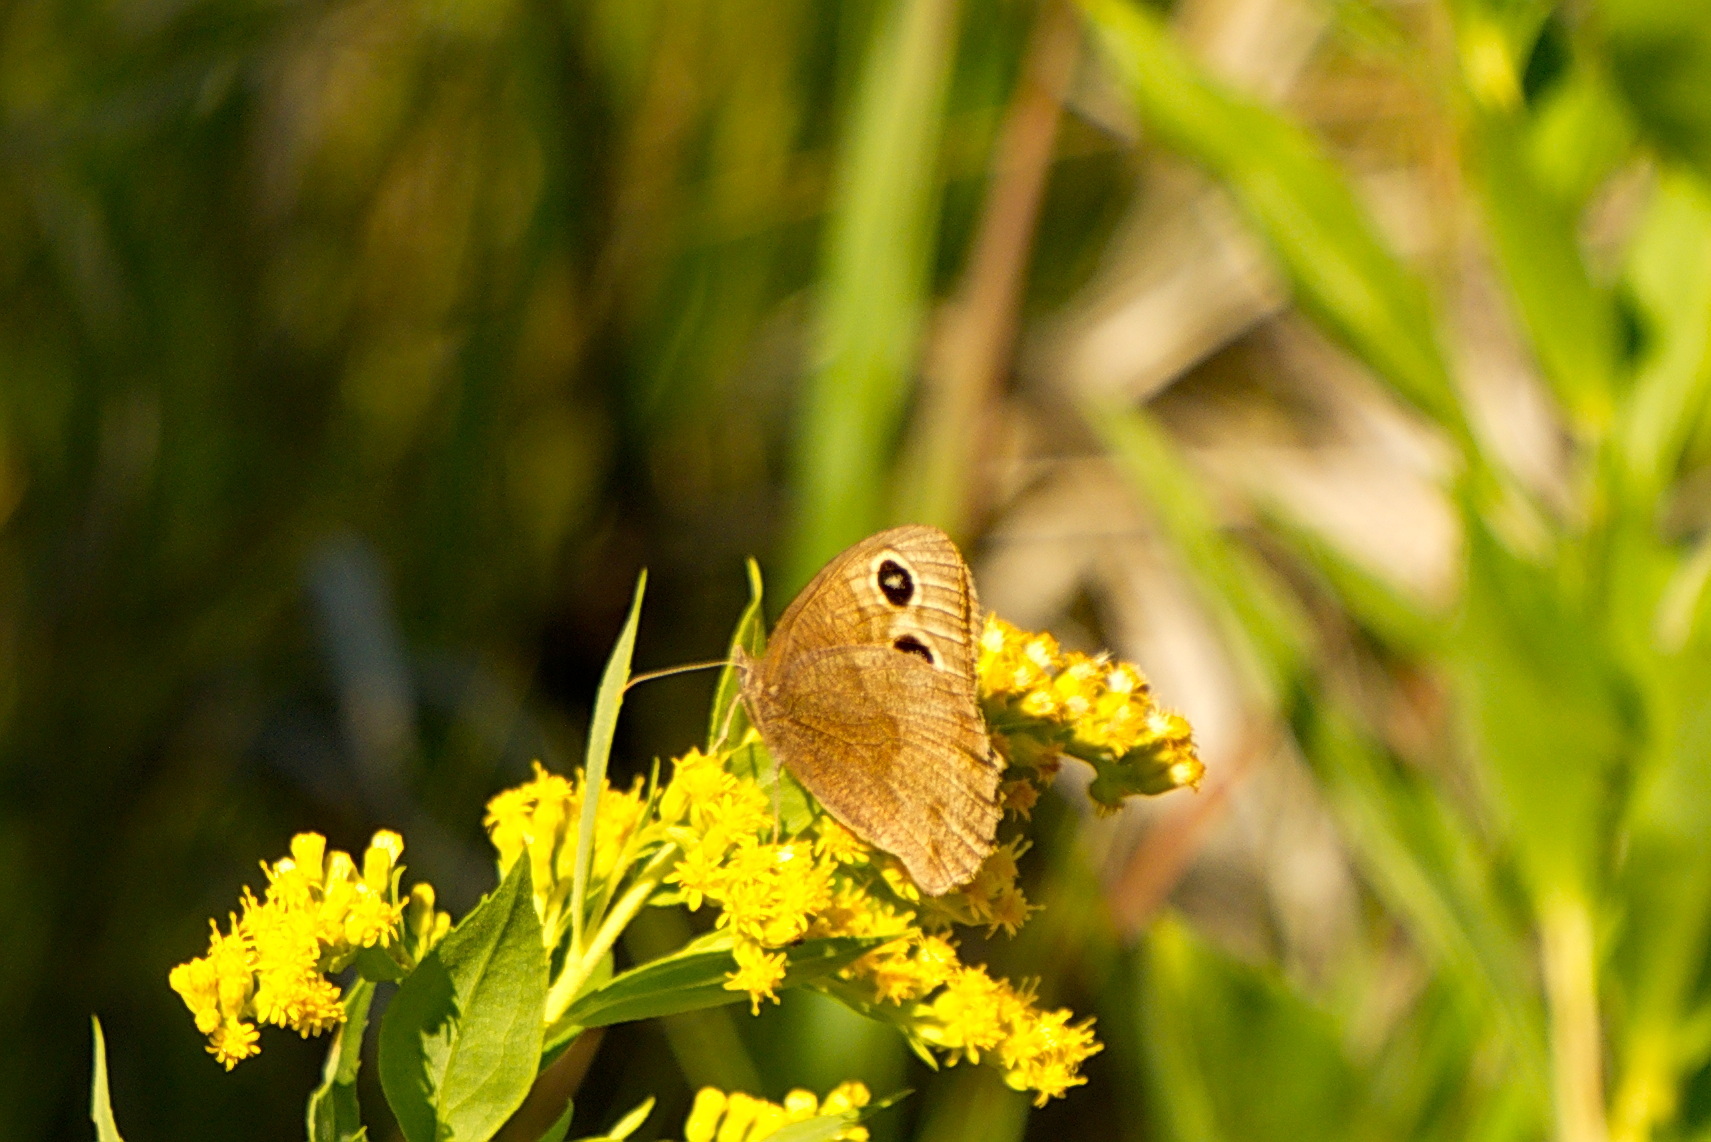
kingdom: Animalia
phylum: Arthropoda
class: Insecta
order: Lepidoptera
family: Nymphalidae
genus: Cercyonis
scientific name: Cercyonis pegala
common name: Common wood-nymph
